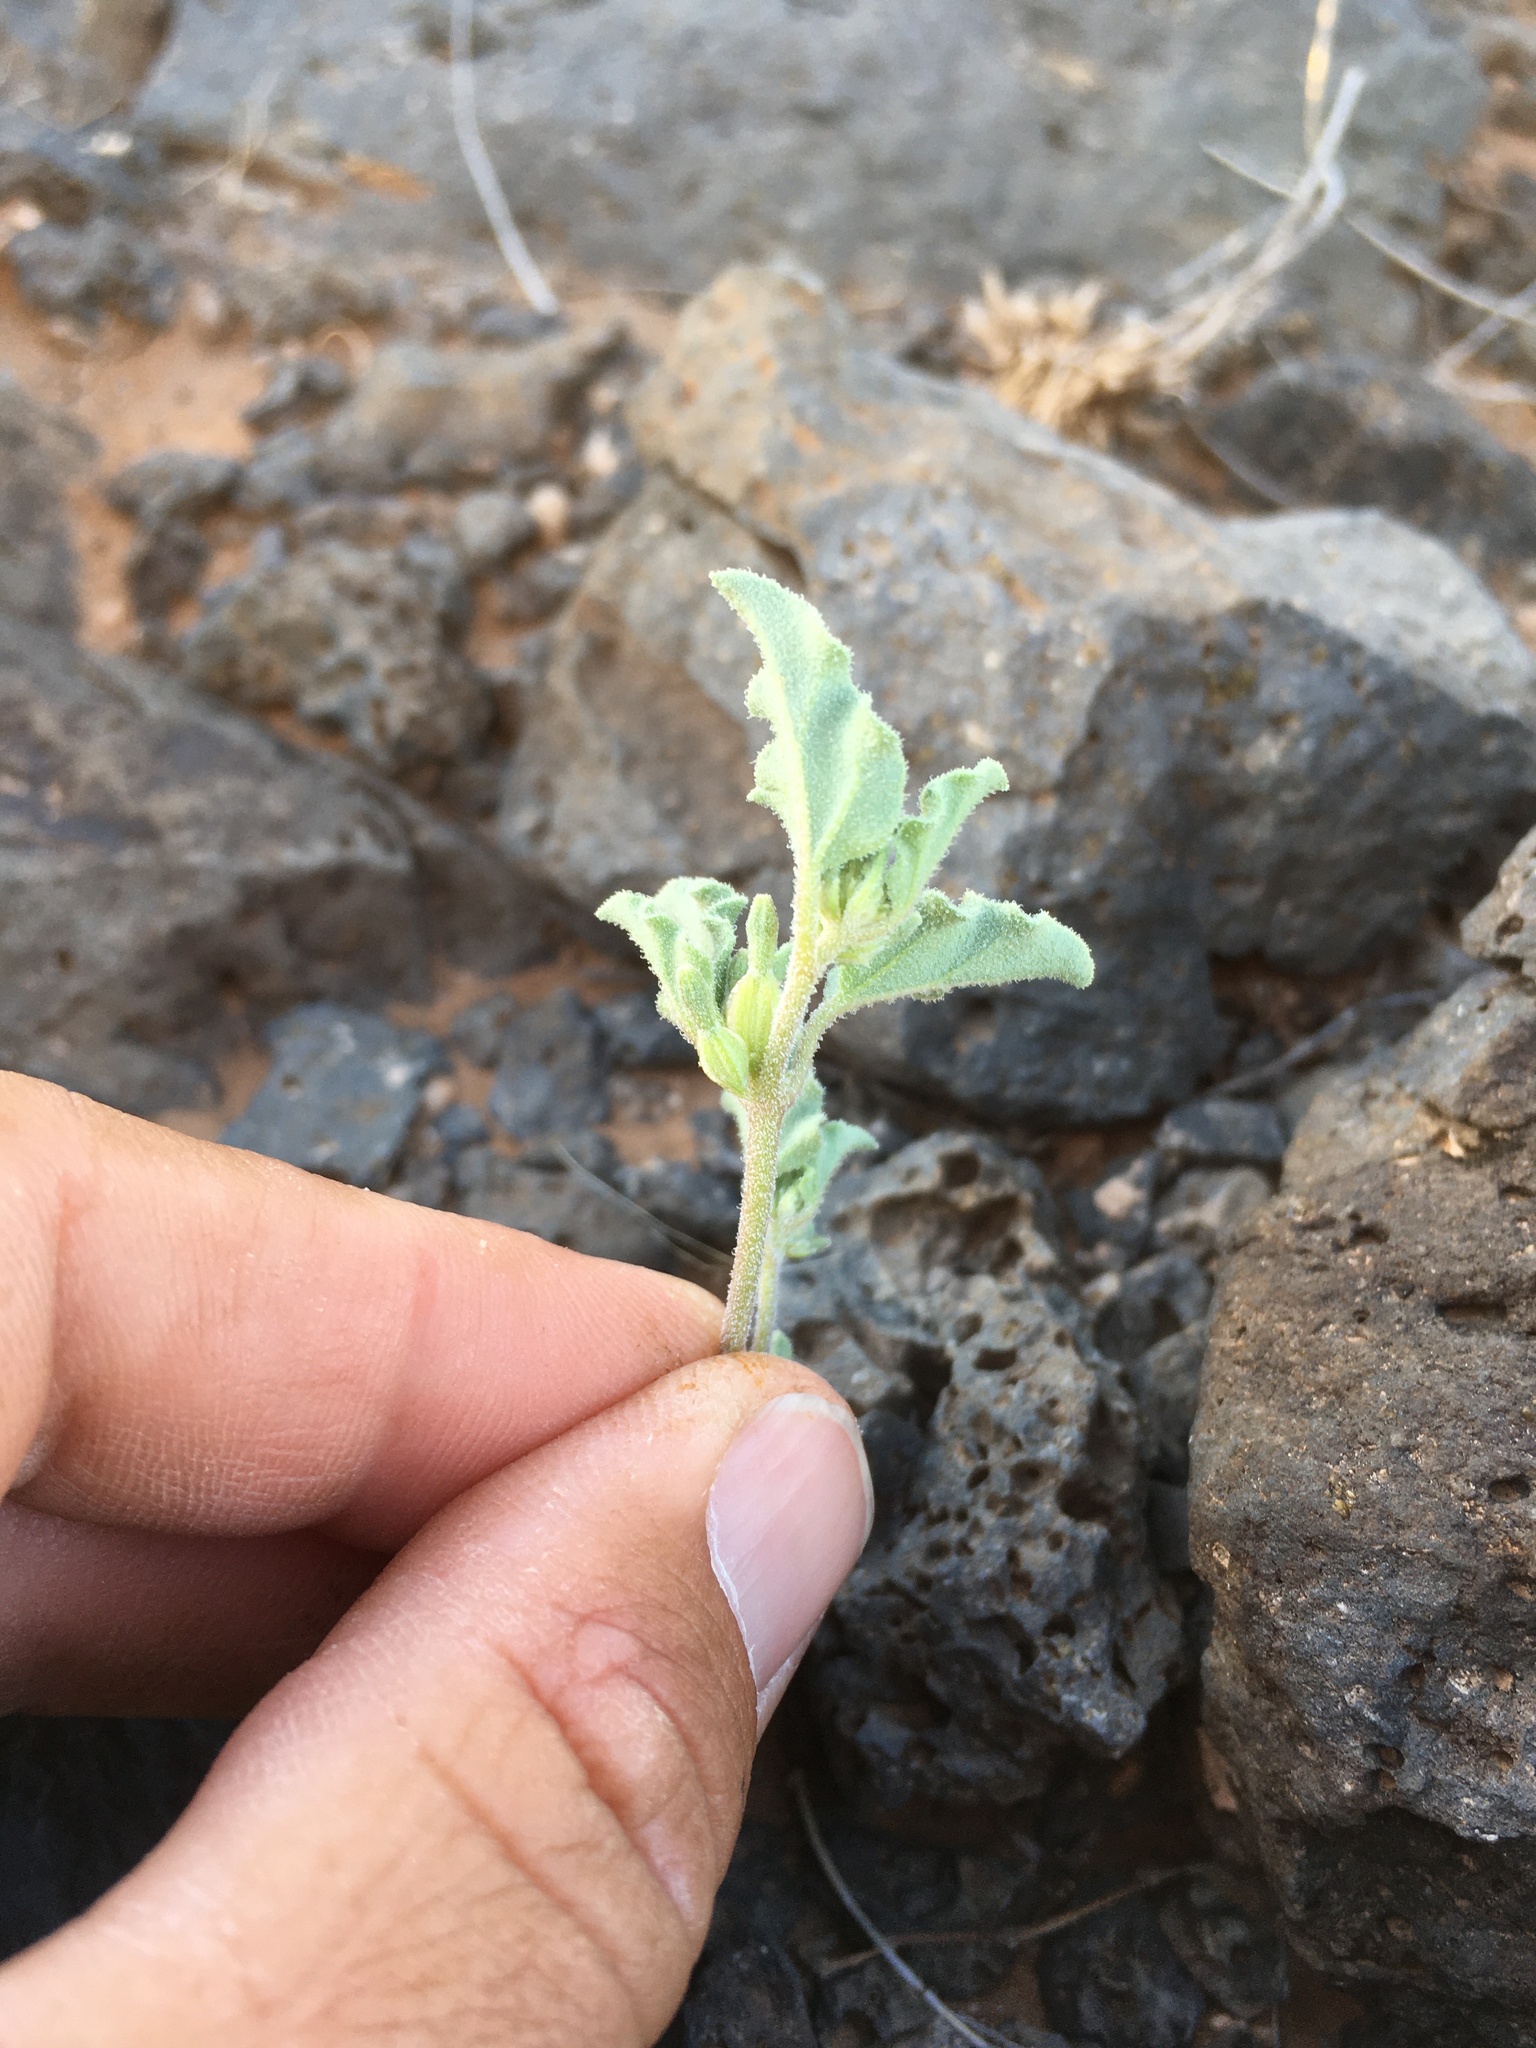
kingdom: Plantae
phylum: Tracheophyta
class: Magnoliopsida
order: Caryophyllales
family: Nyctaginaceae
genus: Acleisanthes
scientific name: Acleisanthes diffusa
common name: Spreading moonpod
